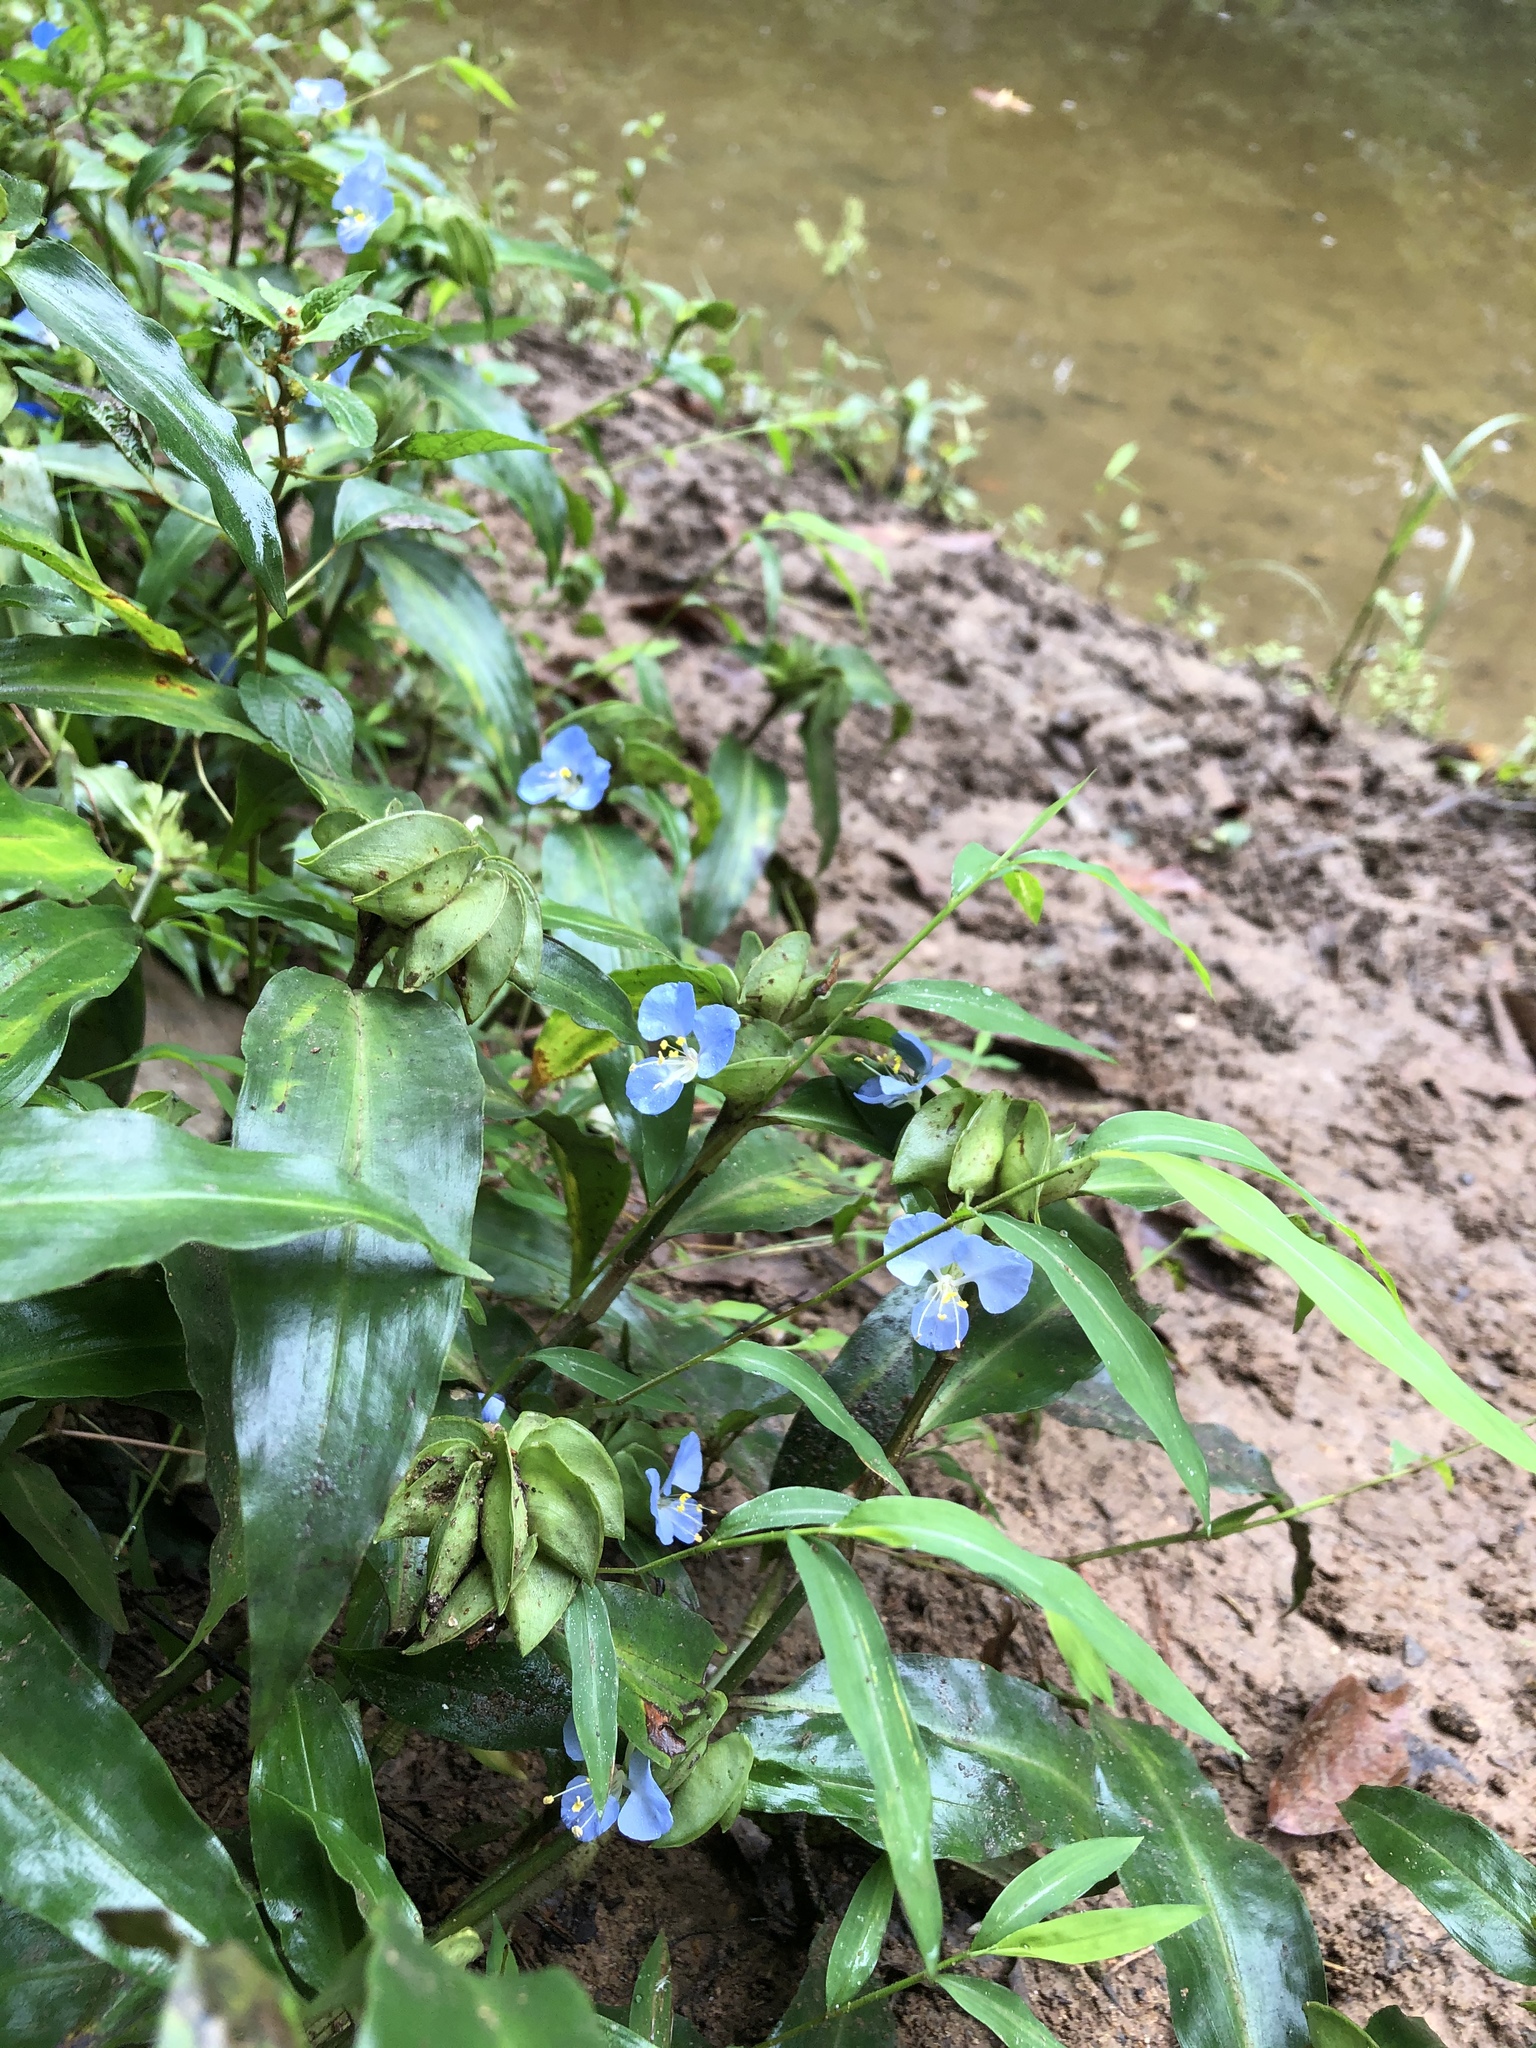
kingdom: Plantae
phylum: Tracheophyta
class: Liliopsida
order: Commelinales
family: Commelinaceae
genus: Commelina
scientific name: Commelina virginica
